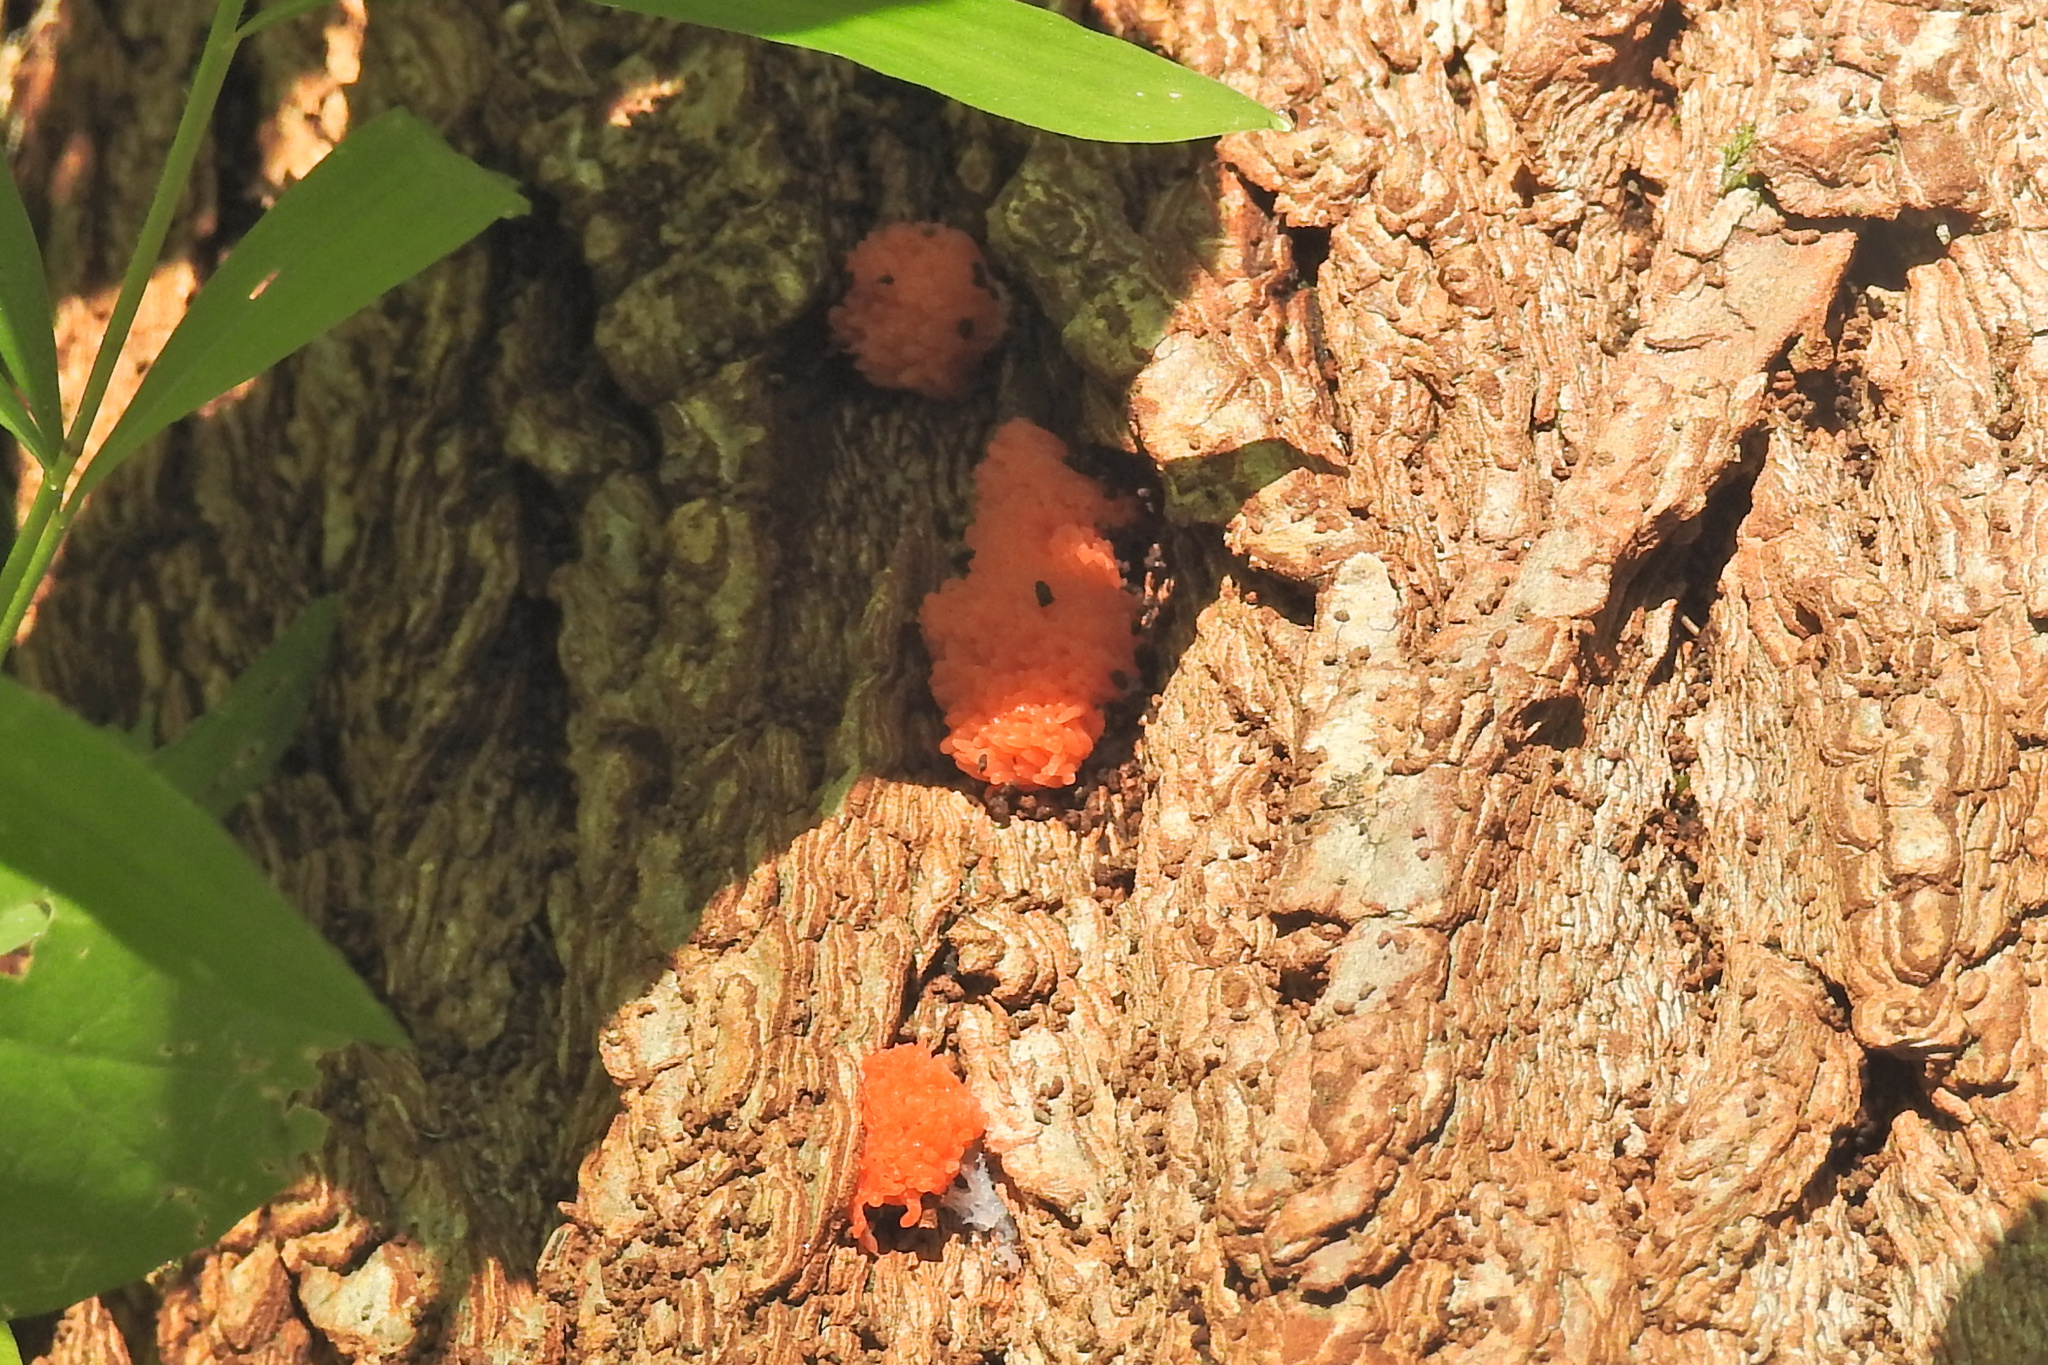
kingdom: Protozoa
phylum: Mycetozoa
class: Myxomycetes
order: Cribrariales
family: Tubiferaceae
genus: Tubifera
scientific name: Tubifera ferruginosa
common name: Red raspberry slime mold
